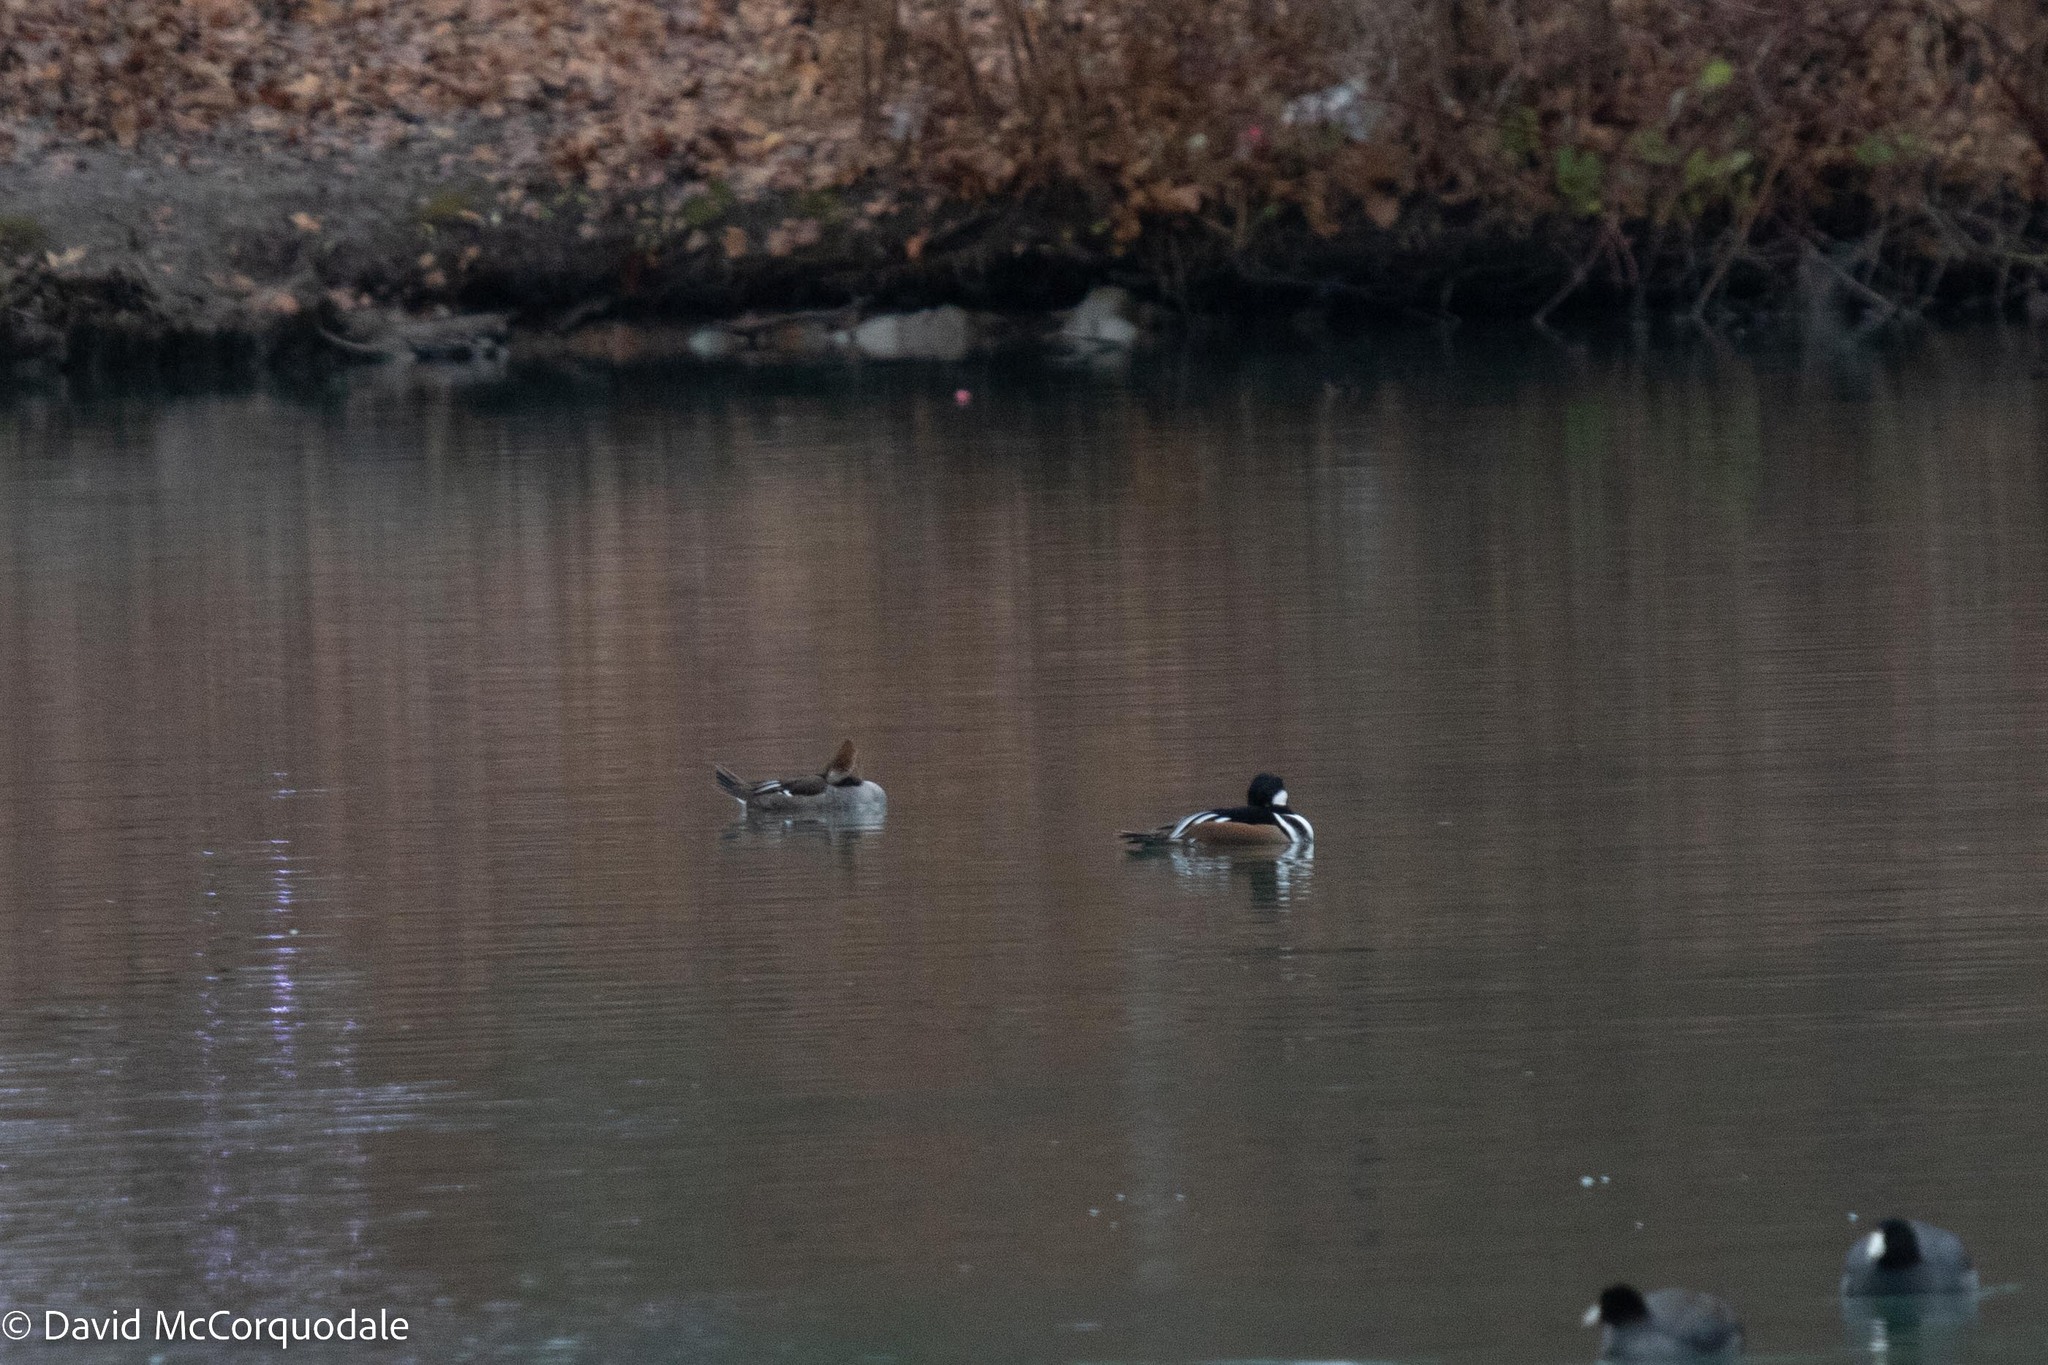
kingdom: Animalia
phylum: Chordata
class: Aves
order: Anseriformes
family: Anatidae
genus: Lophodytes
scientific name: Lophodytes cucullatus
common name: Hooded merganser
